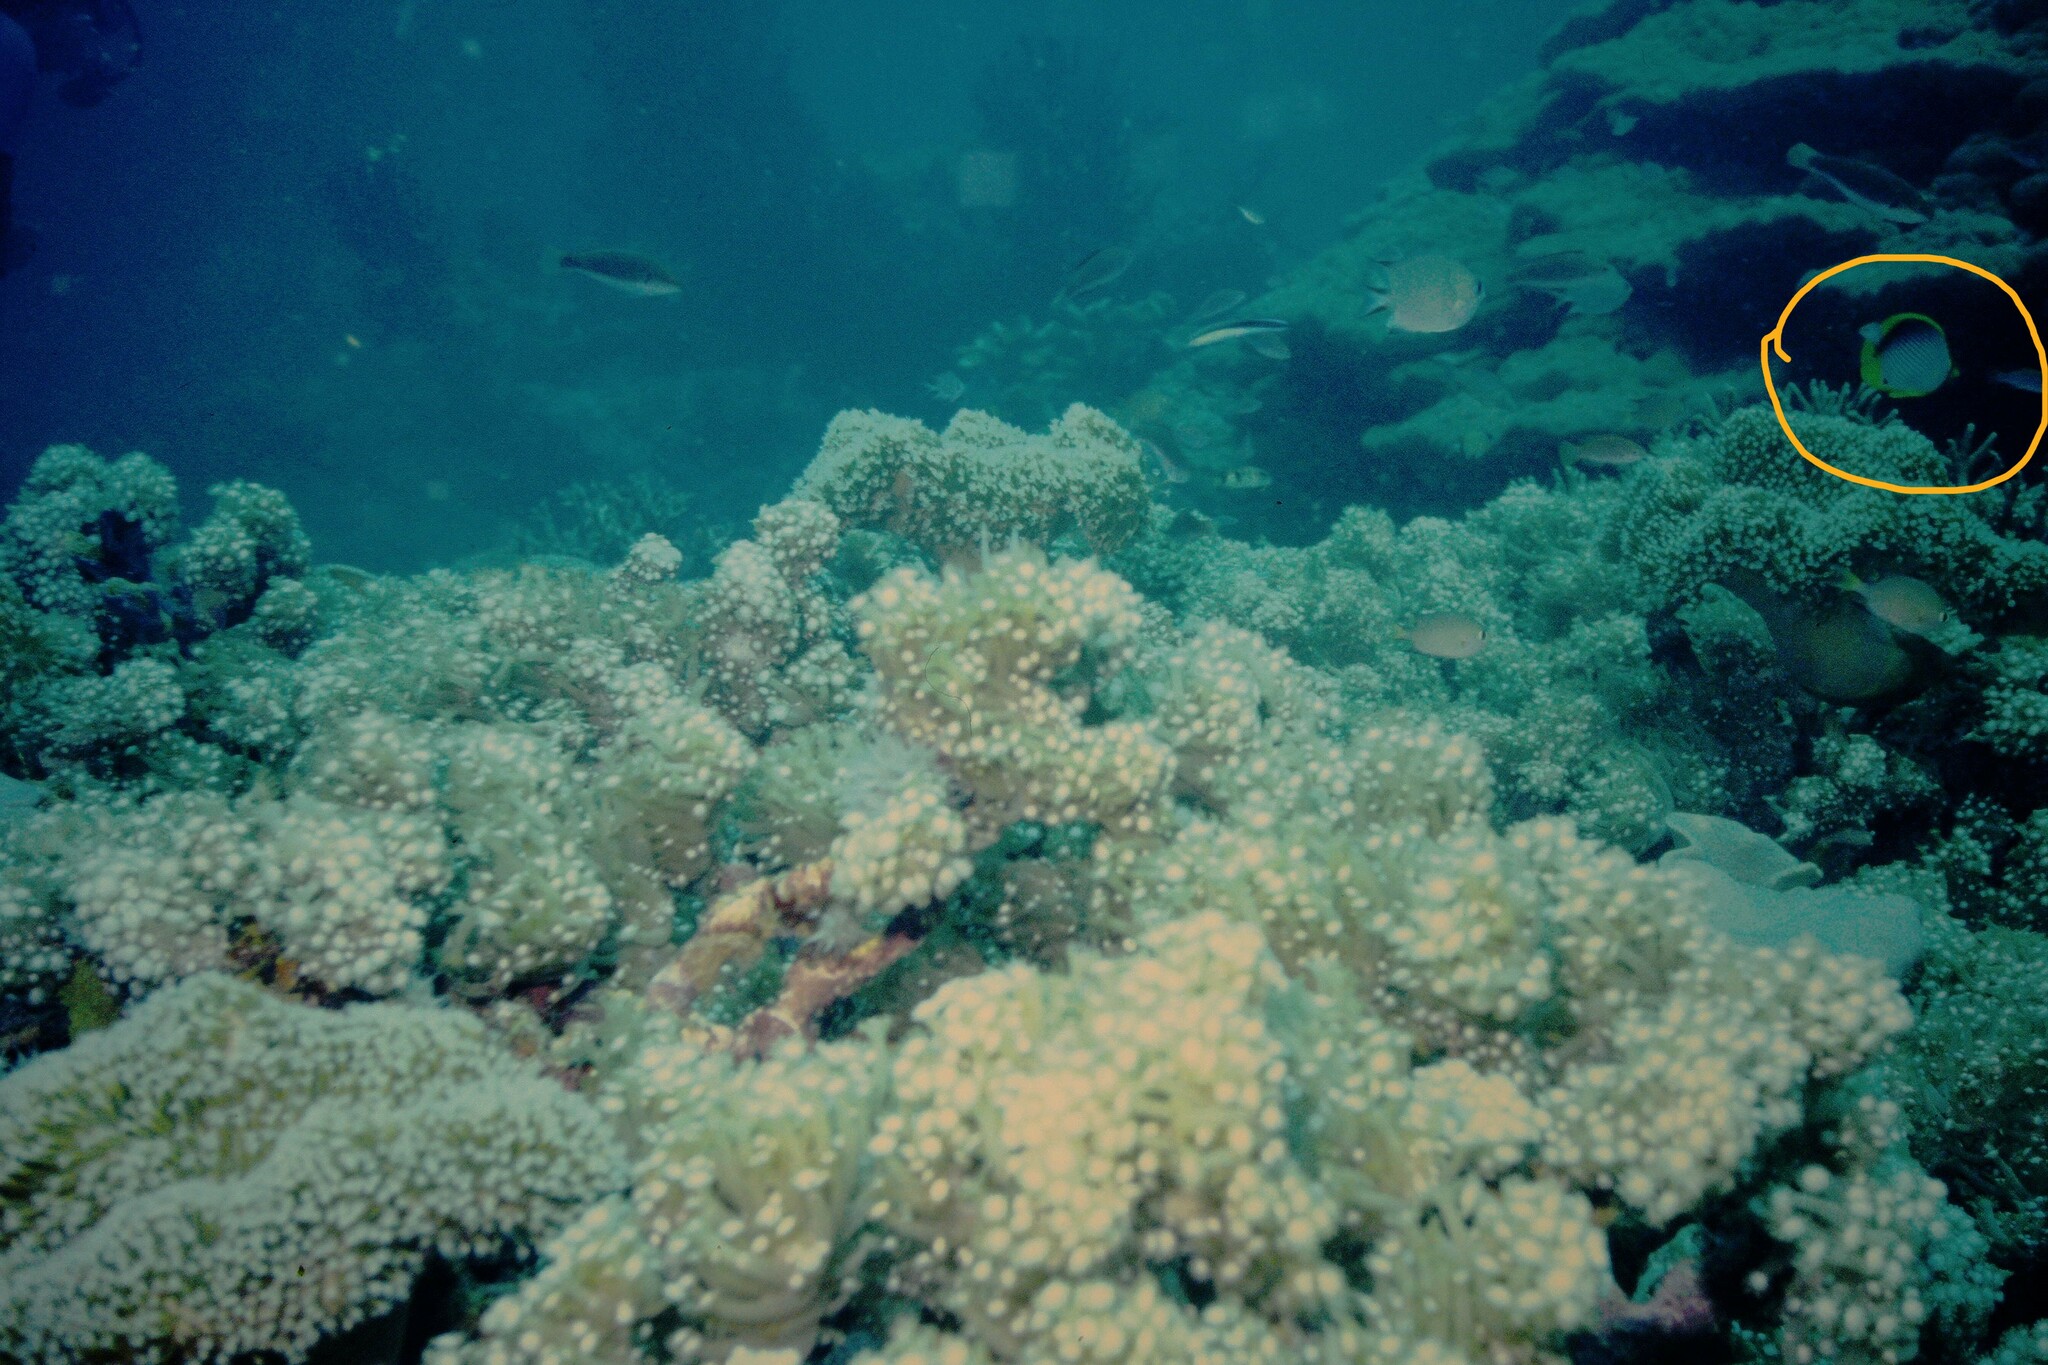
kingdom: Animalia
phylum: Chordata
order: Perciformes
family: Chaetodontidae
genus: Chaetodon
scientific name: Chaetodon melannotus
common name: Blackback butterflyfish
